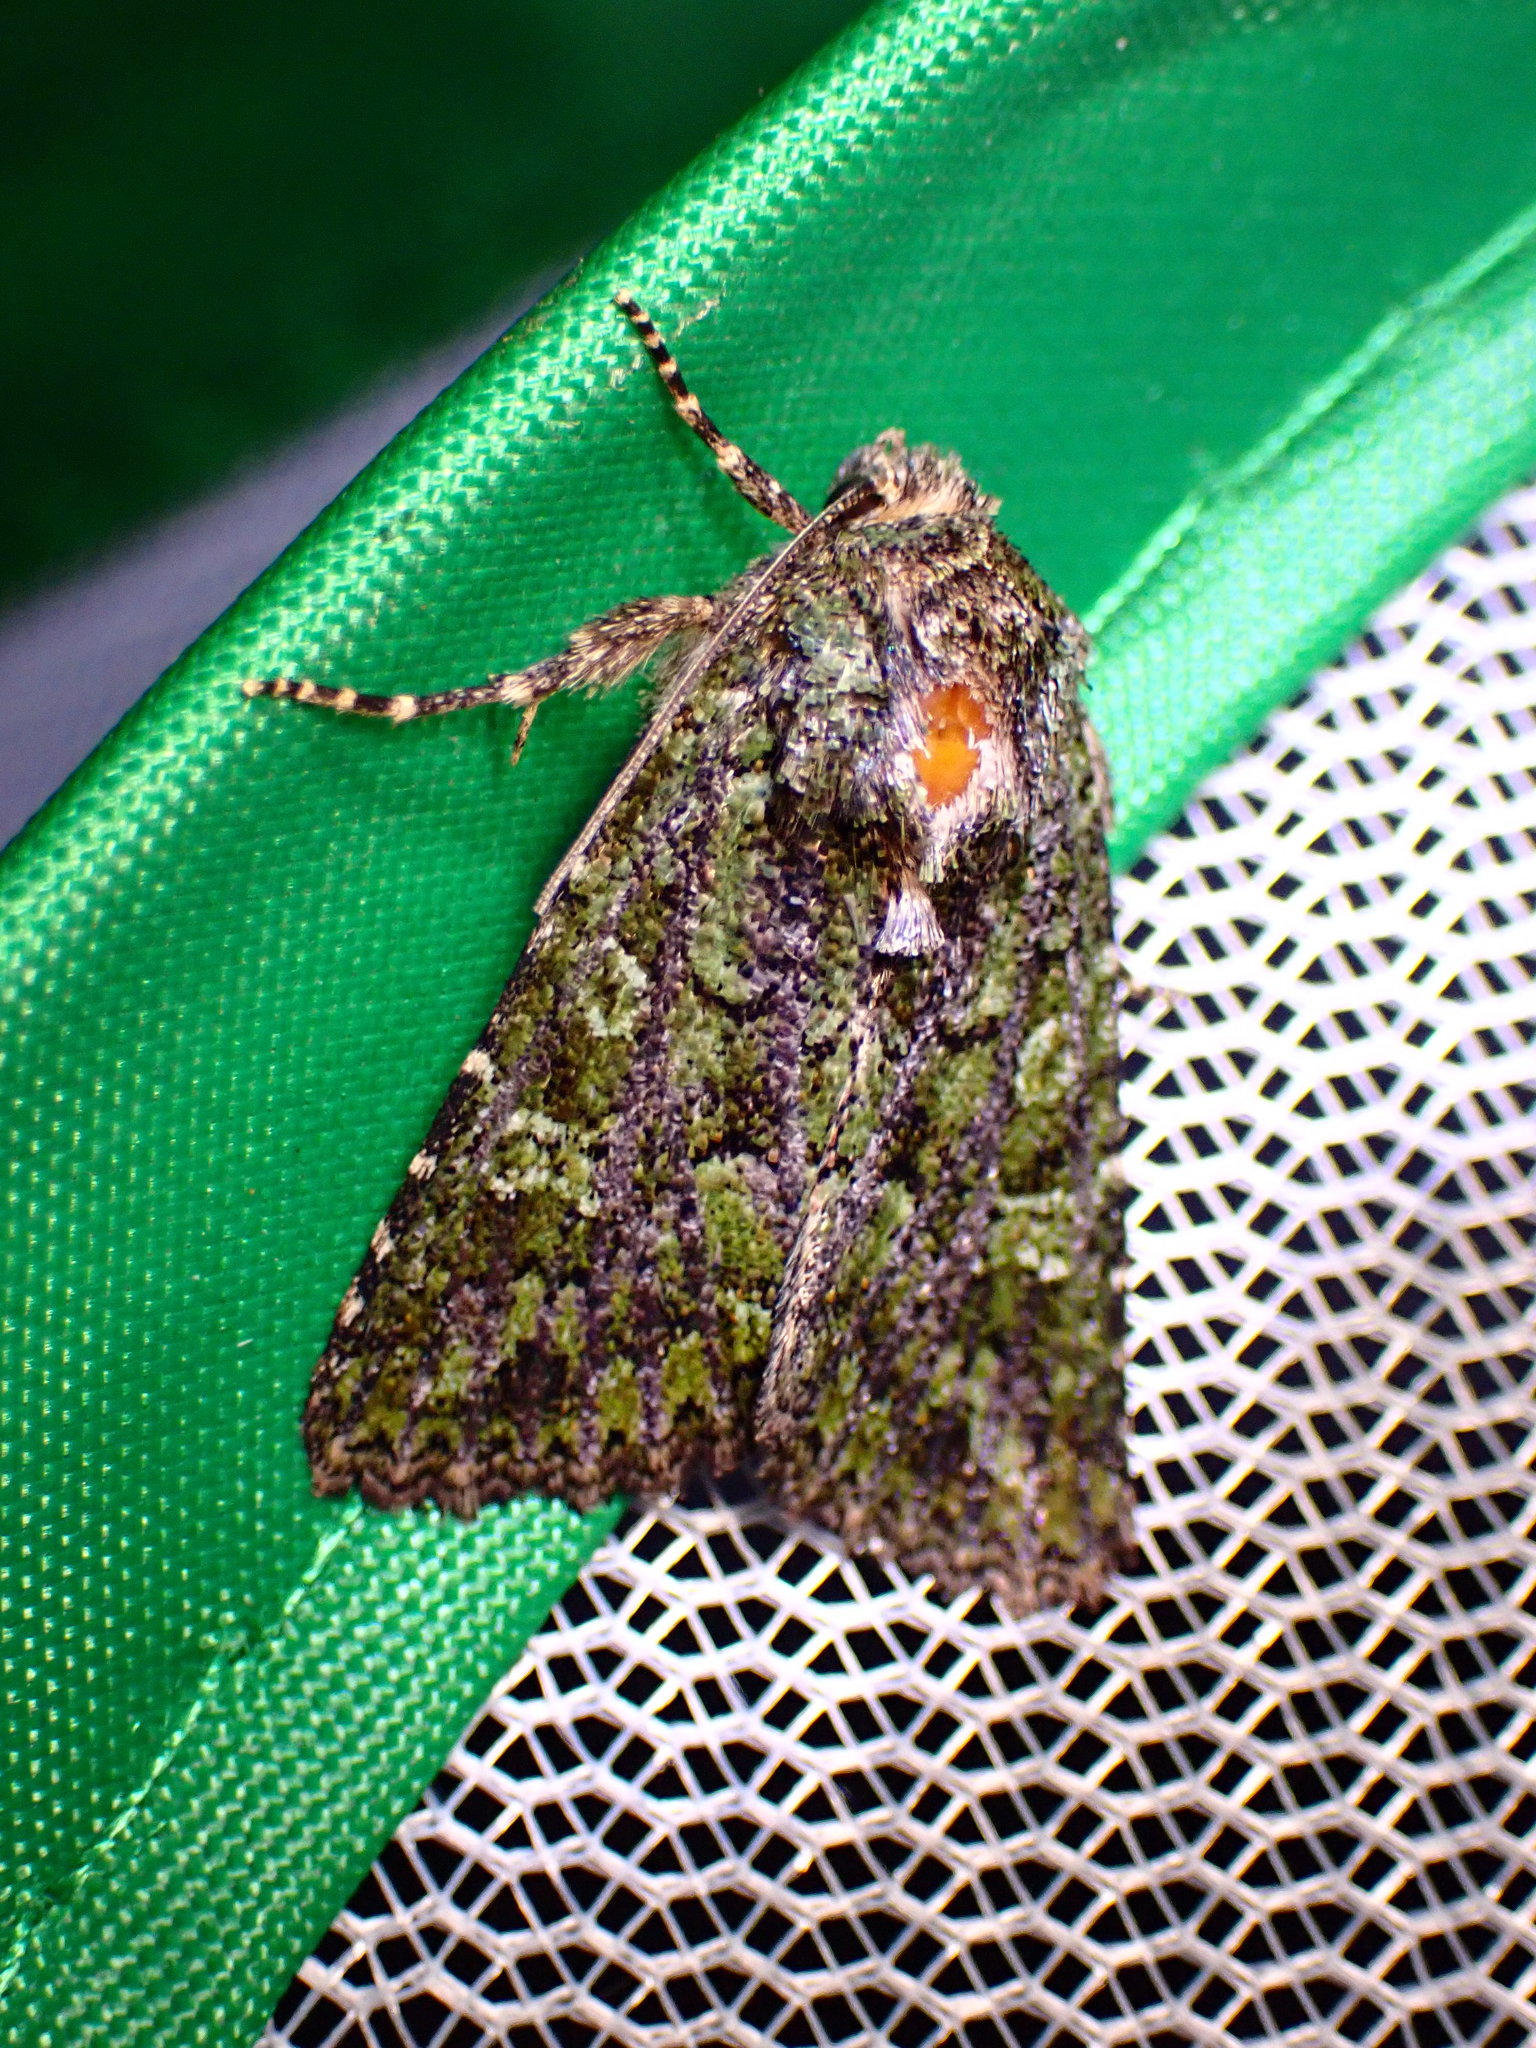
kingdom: Animalia
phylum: Arthropoda
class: Insecta
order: Lepidoptera
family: Noctuidae
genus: Aseptis
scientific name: Aseptis marina
